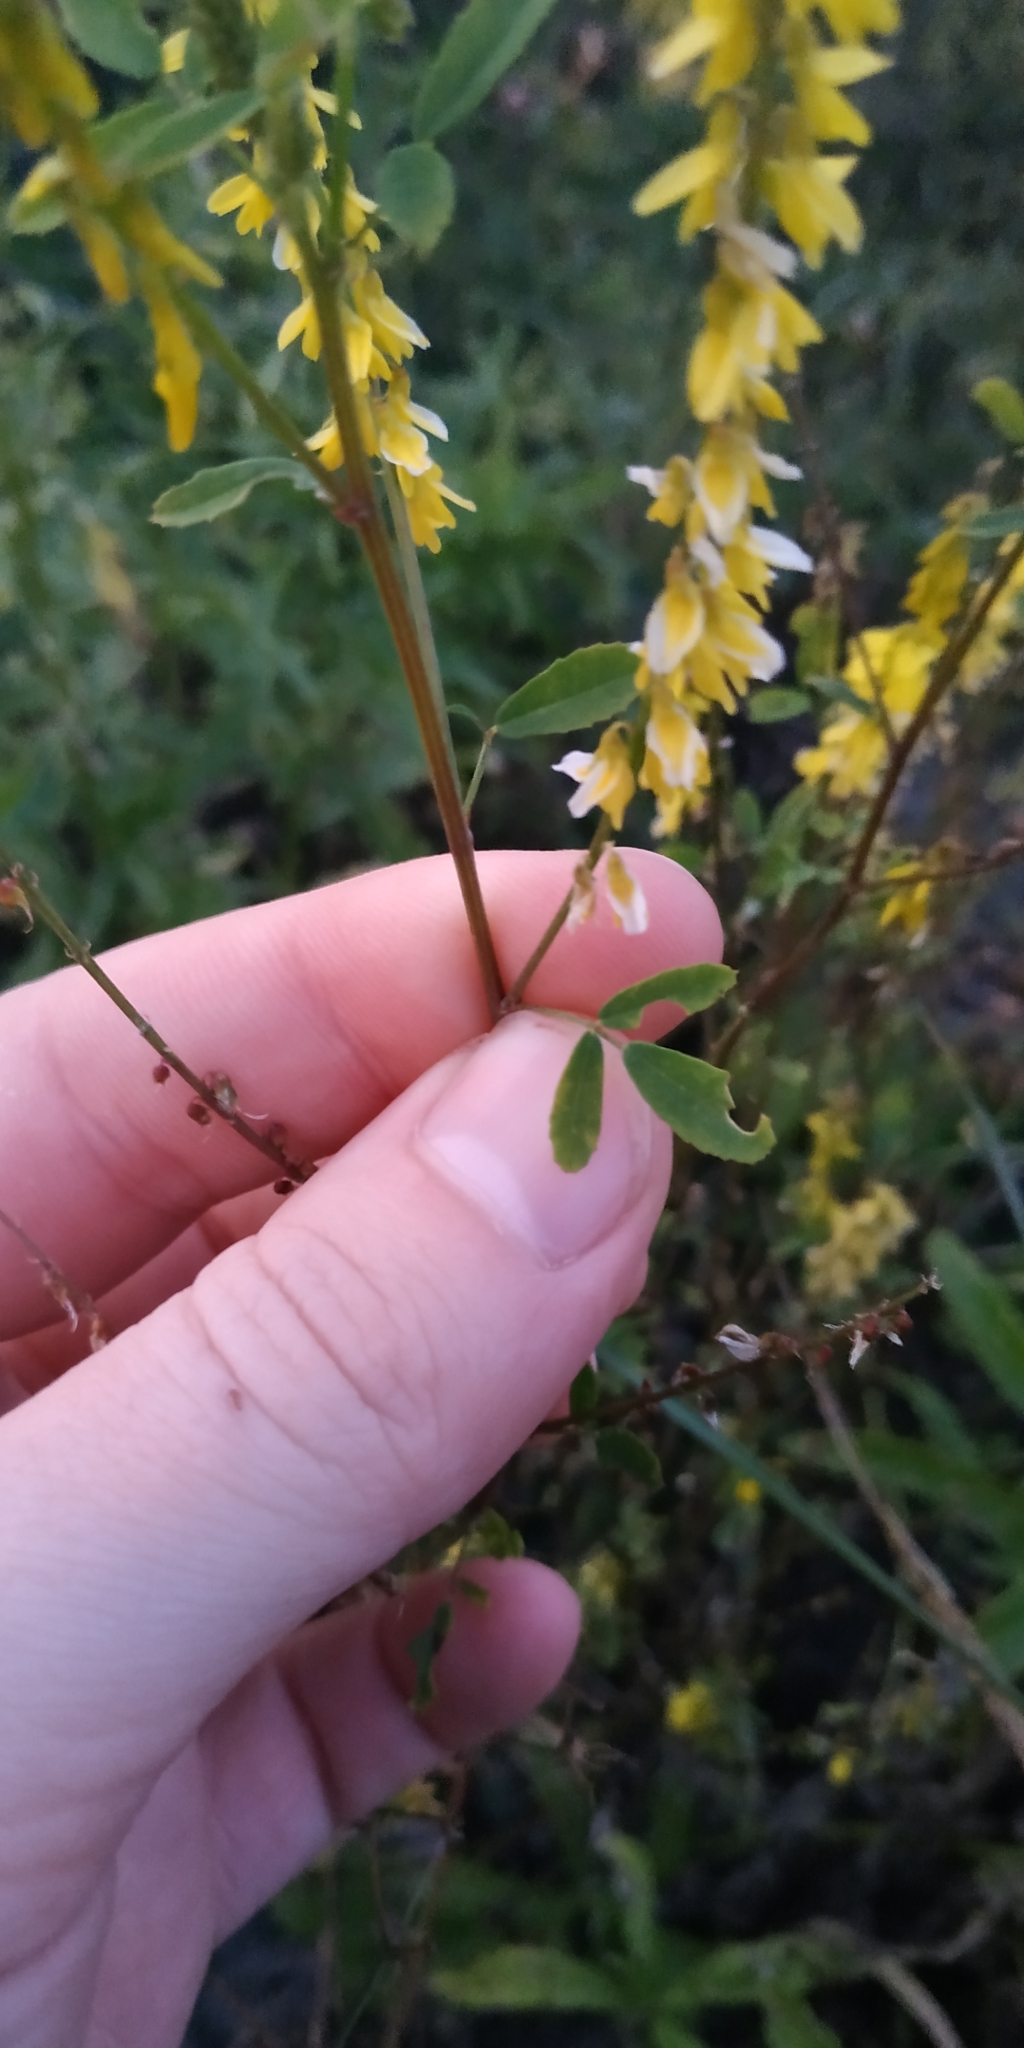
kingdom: Plantae
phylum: Tracheophyta
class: Magnoliopsida
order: Fabales
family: Fabaceae
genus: Melilotus
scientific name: Melilotus officinalis
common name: Sweetclover
